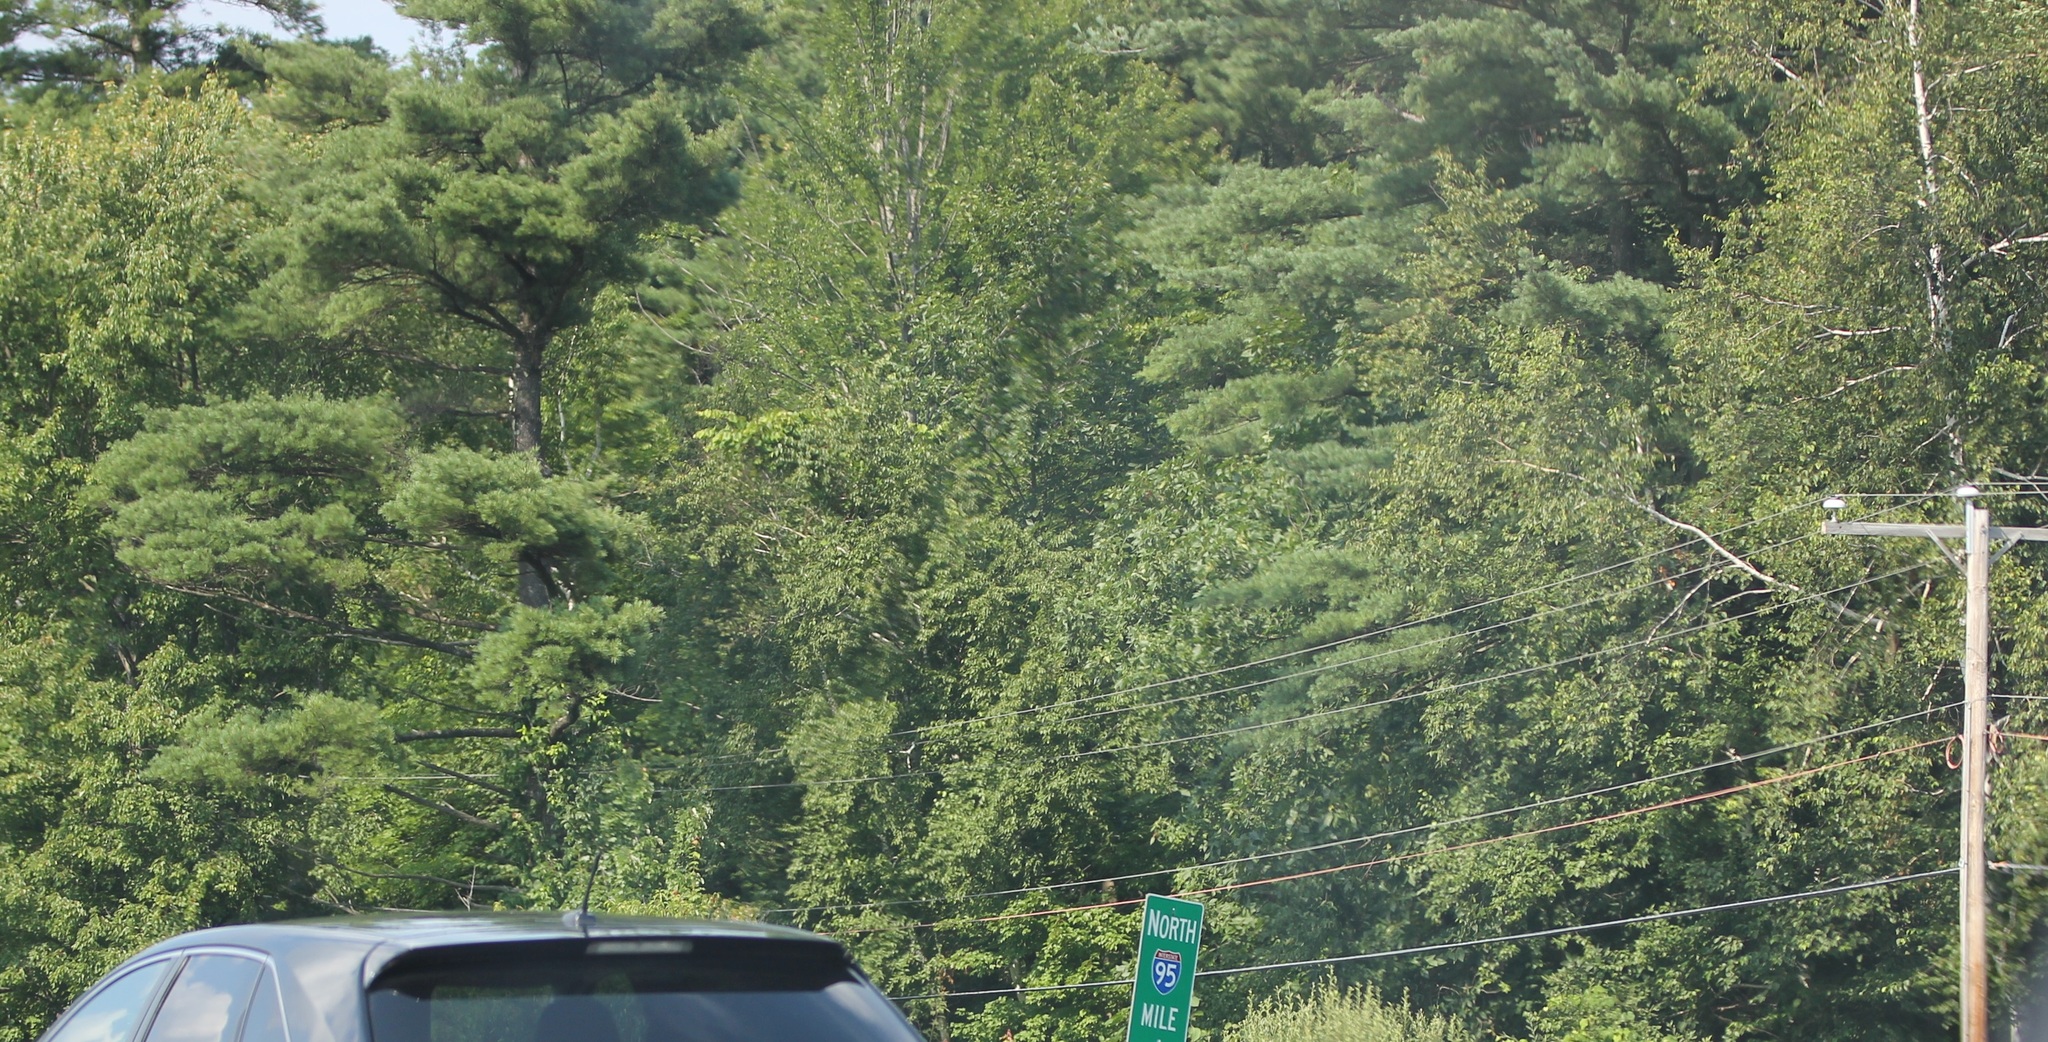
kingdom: Plantae
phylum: Tracheophyta
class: Pinopsida
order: Pinales
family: Pinaceae
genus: Pinus
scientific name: Pinus strobus
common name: Weymouth pine
